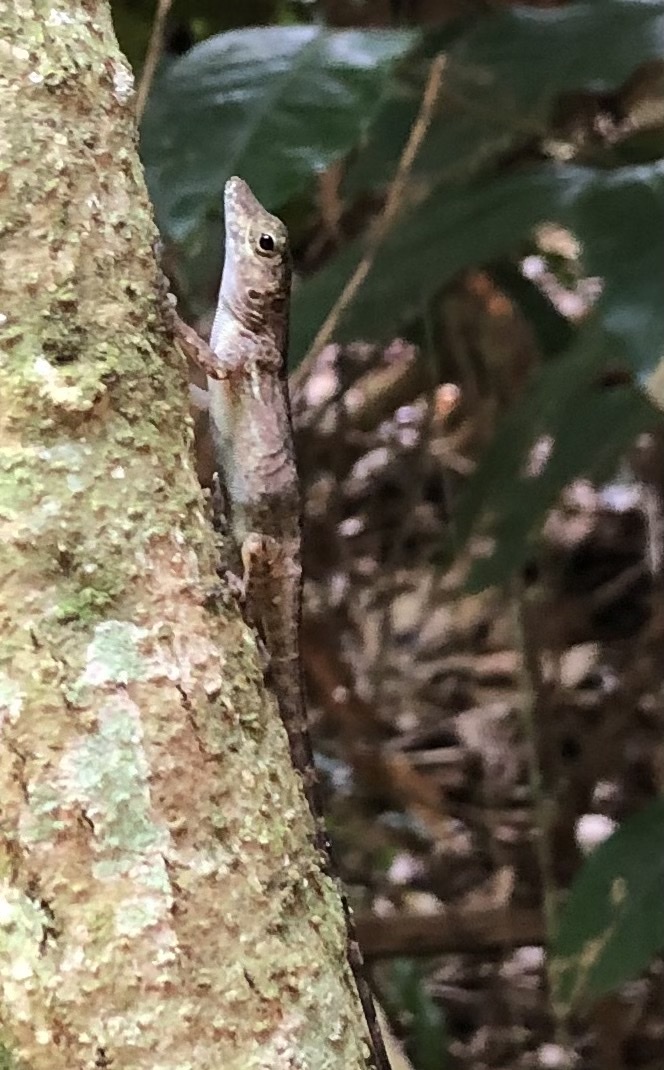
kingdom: Animalia
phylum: Chordata
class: Squamata
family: Dactyloidae
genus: Anolis
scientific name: Anolis cristatellus
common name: Crested anole
